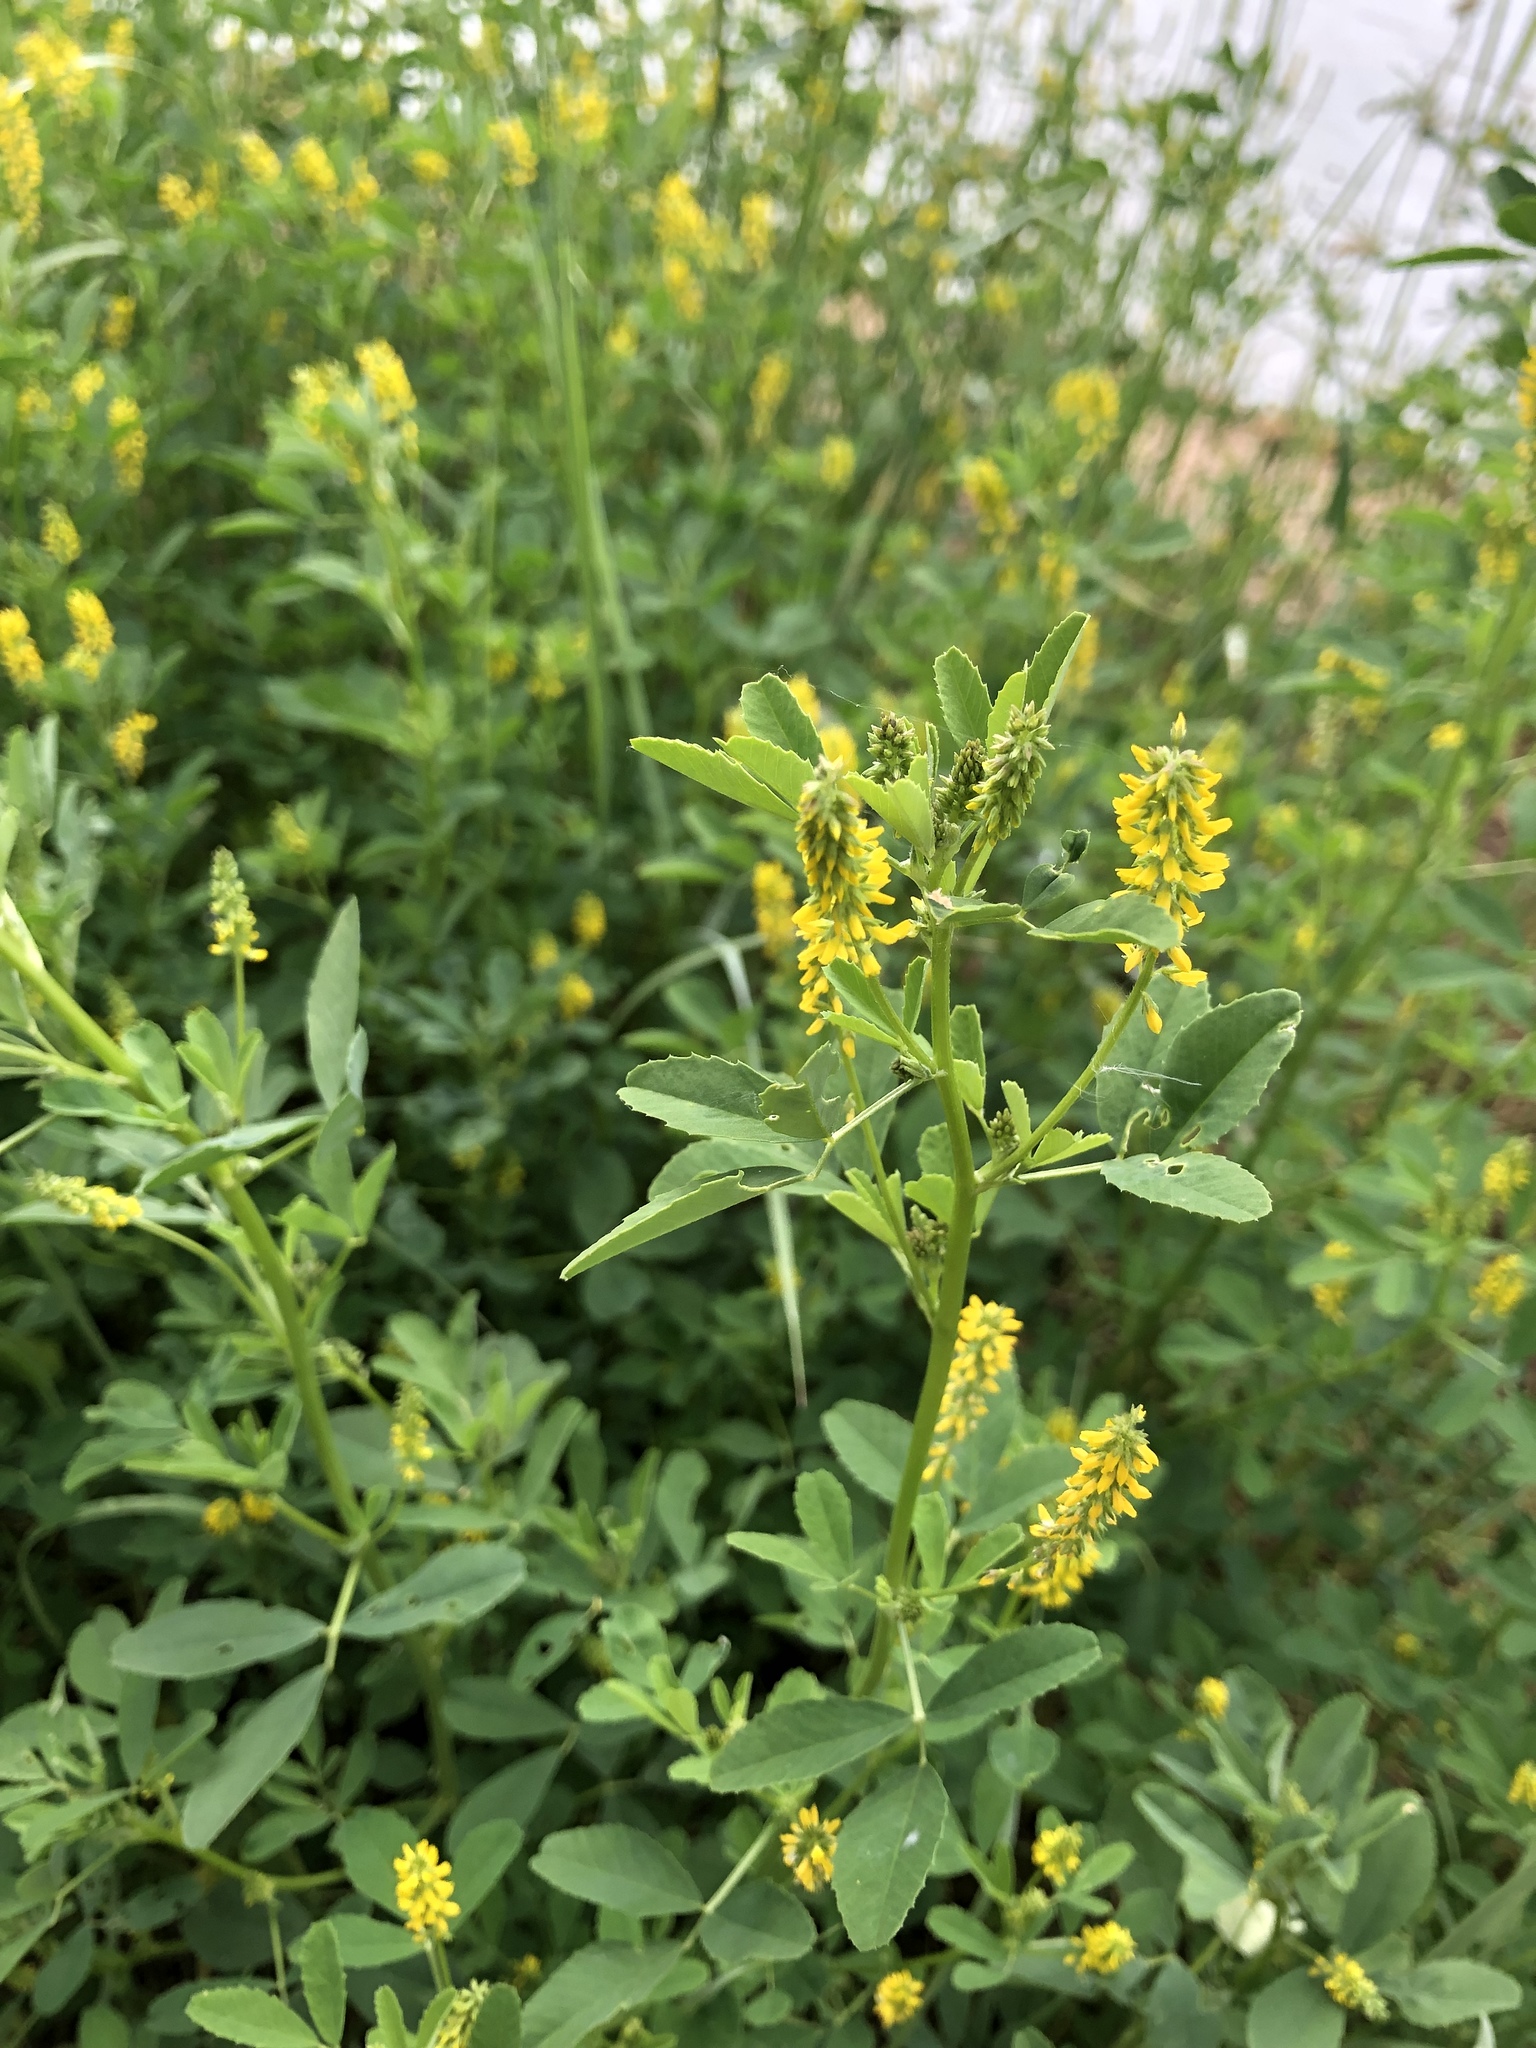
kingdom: Plantae
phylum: Tracheophyta
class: Magnoliopsida
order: Fabales
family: Fabaceae
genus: Melilotus
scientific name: Melilotus indicus
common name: Small melilot
